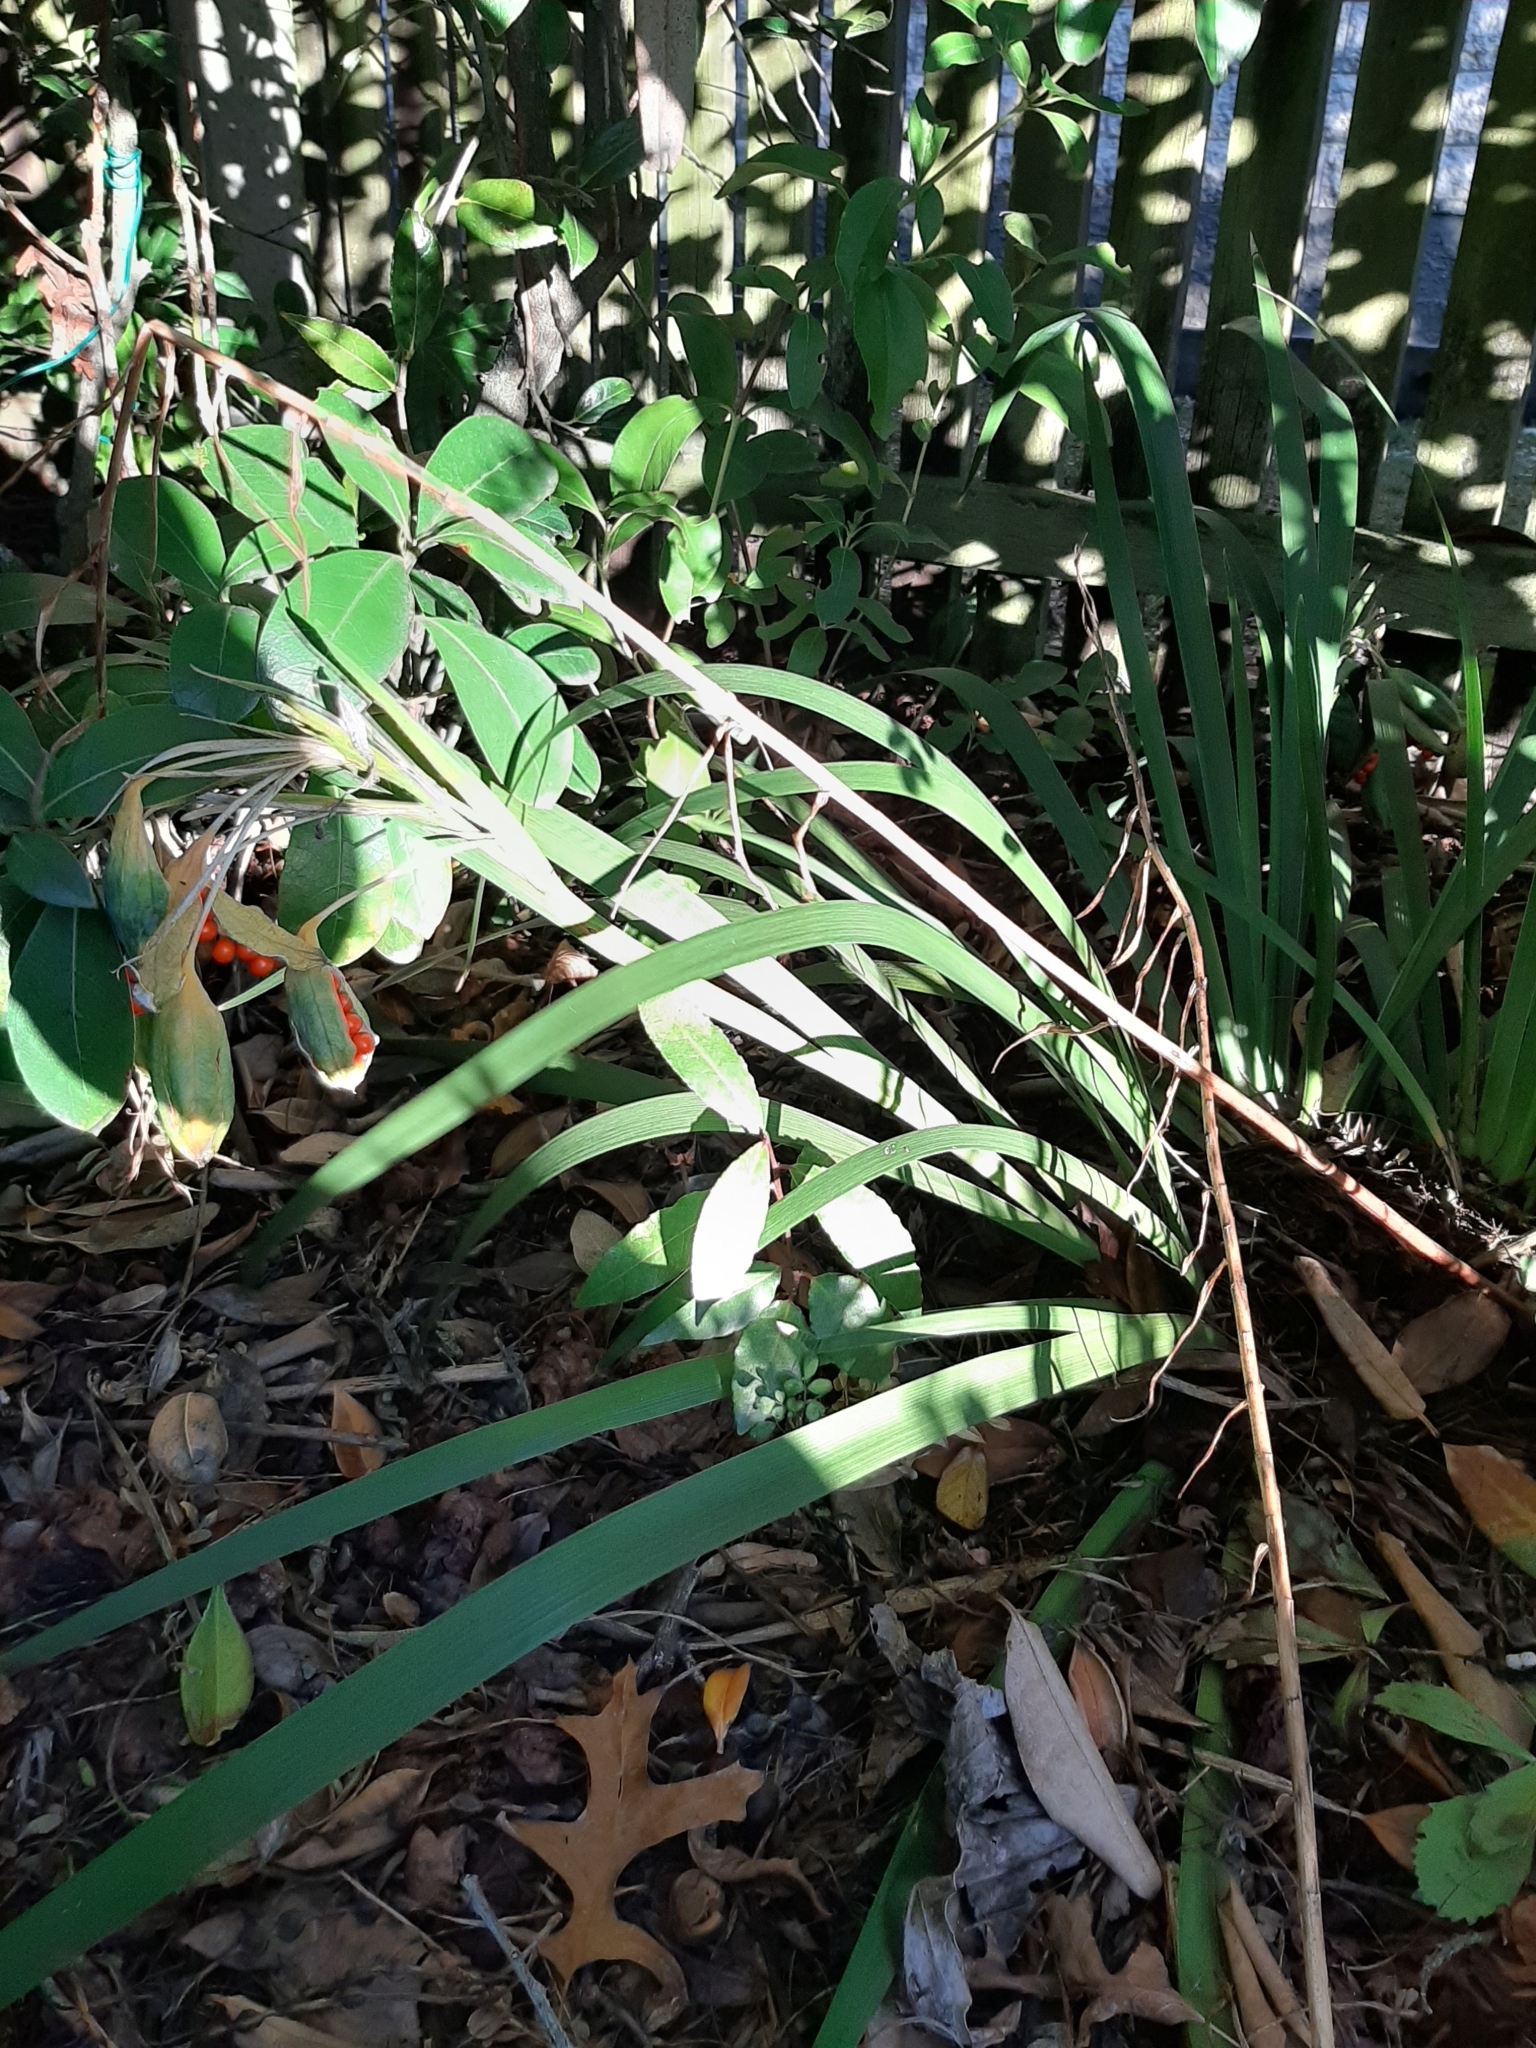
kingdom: Plantae
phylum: Tracheophyta
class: Liliopsida
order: Asparagales
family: Iridaceae
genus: Iris
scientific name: Iris foetidissima
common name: Stinking iris
